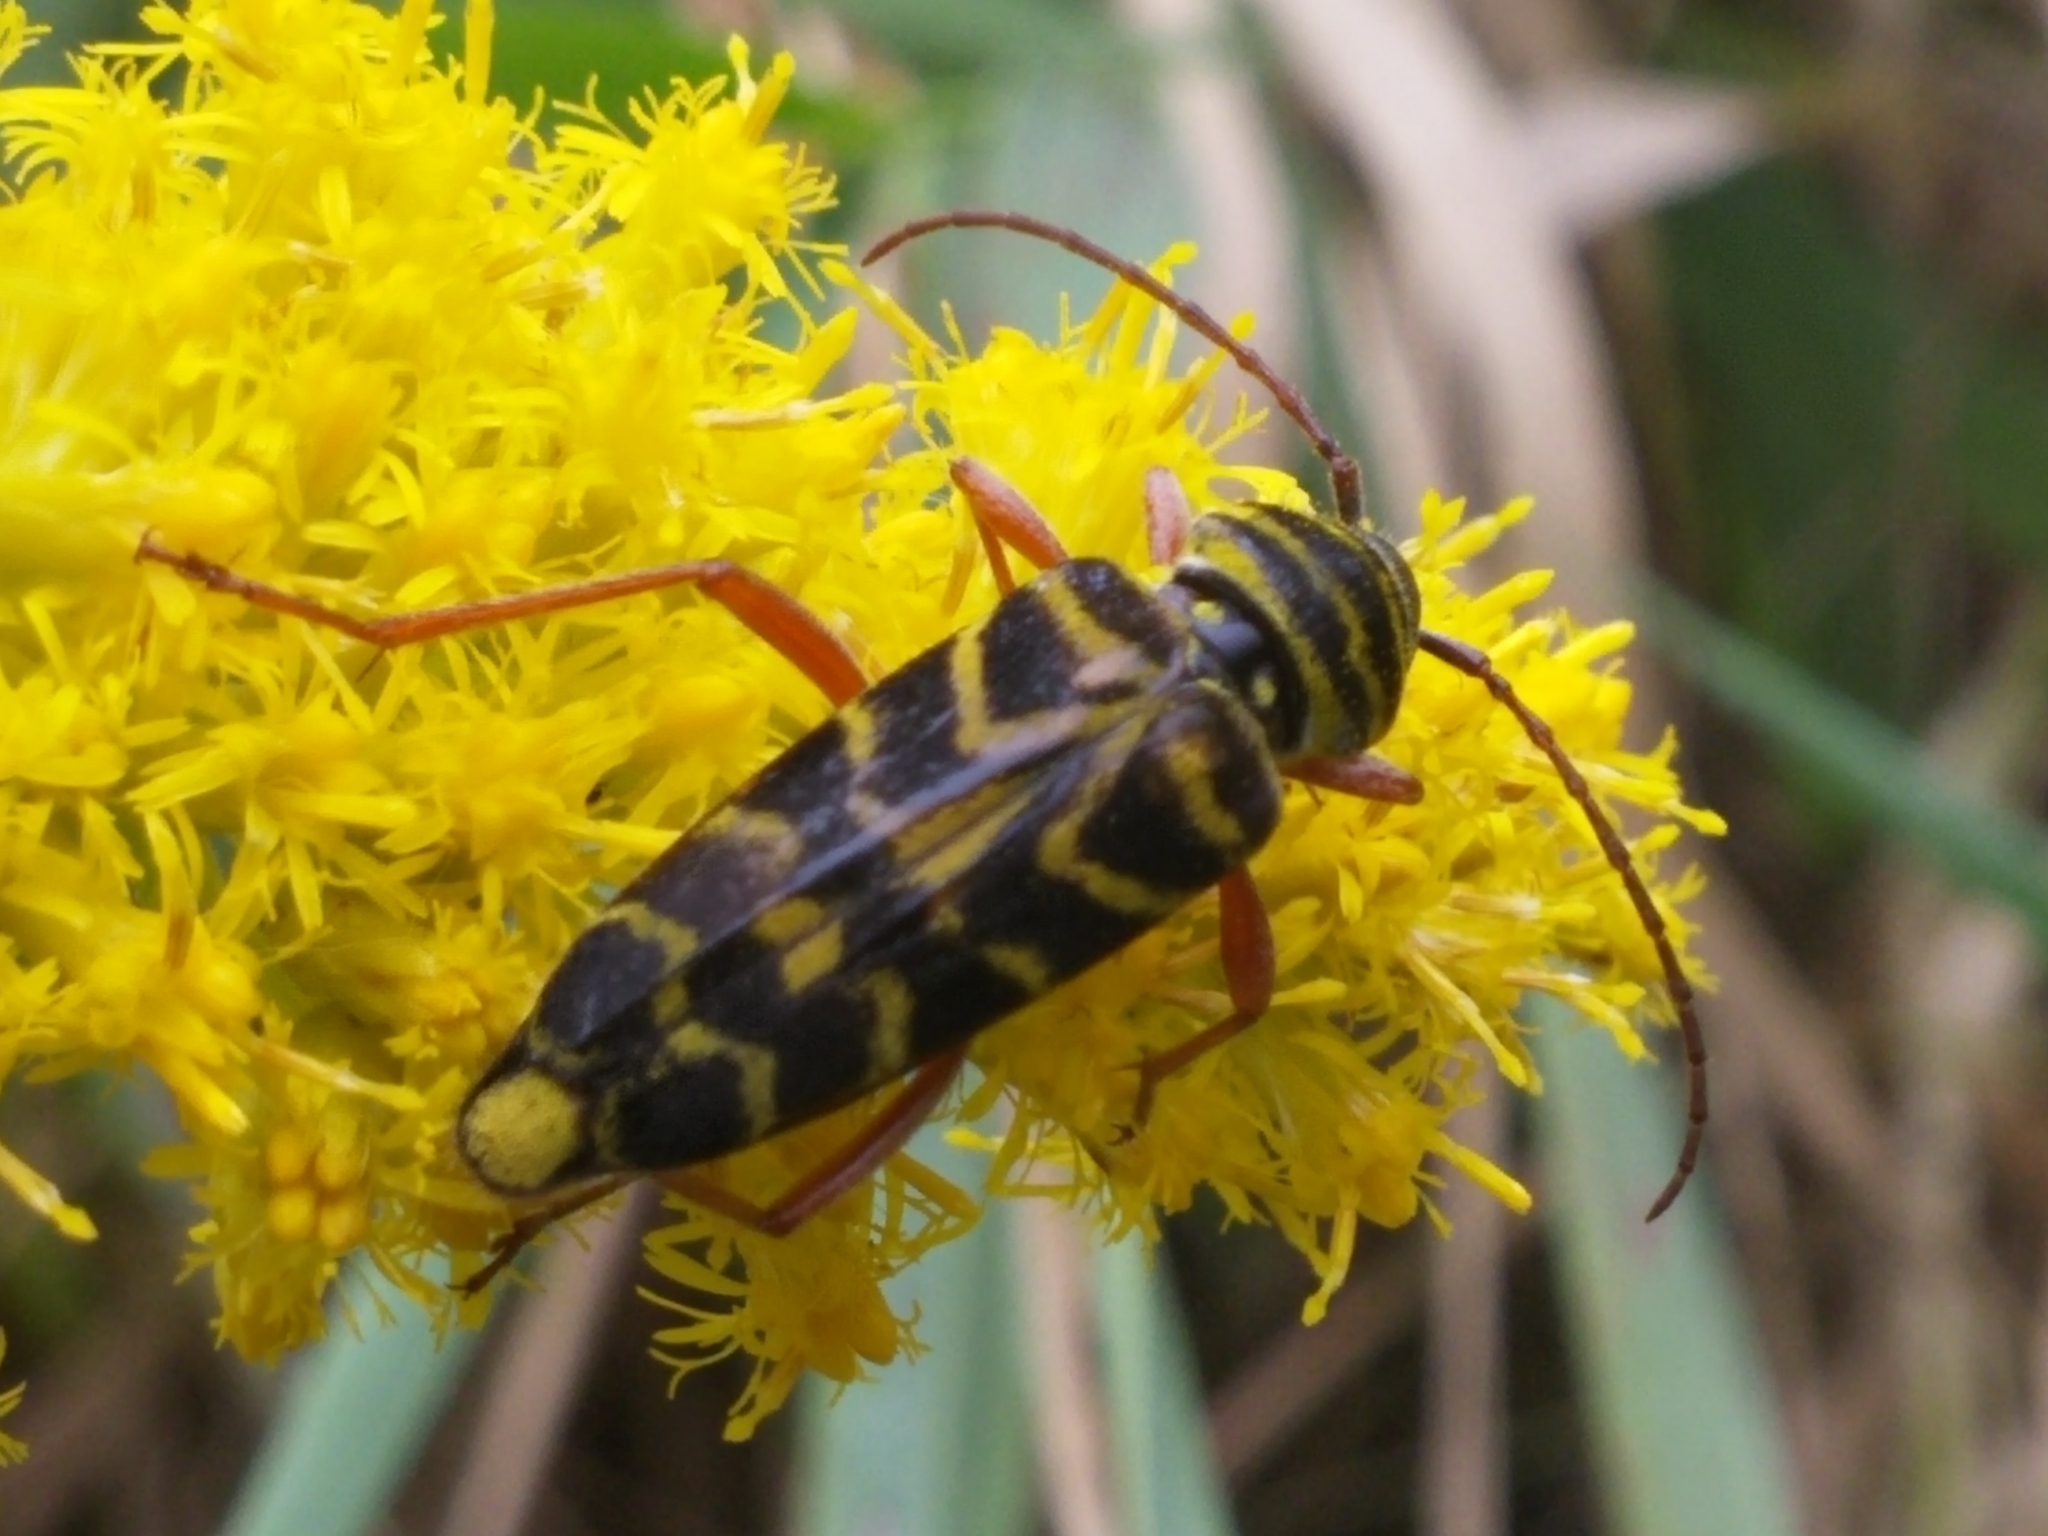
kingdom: Animalia
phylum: Arthropoda
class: Insecta
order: Coleoptera
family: Cerambycidae
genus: Megacyllene
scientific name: Megacyllene robiniae
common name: Locust borer
